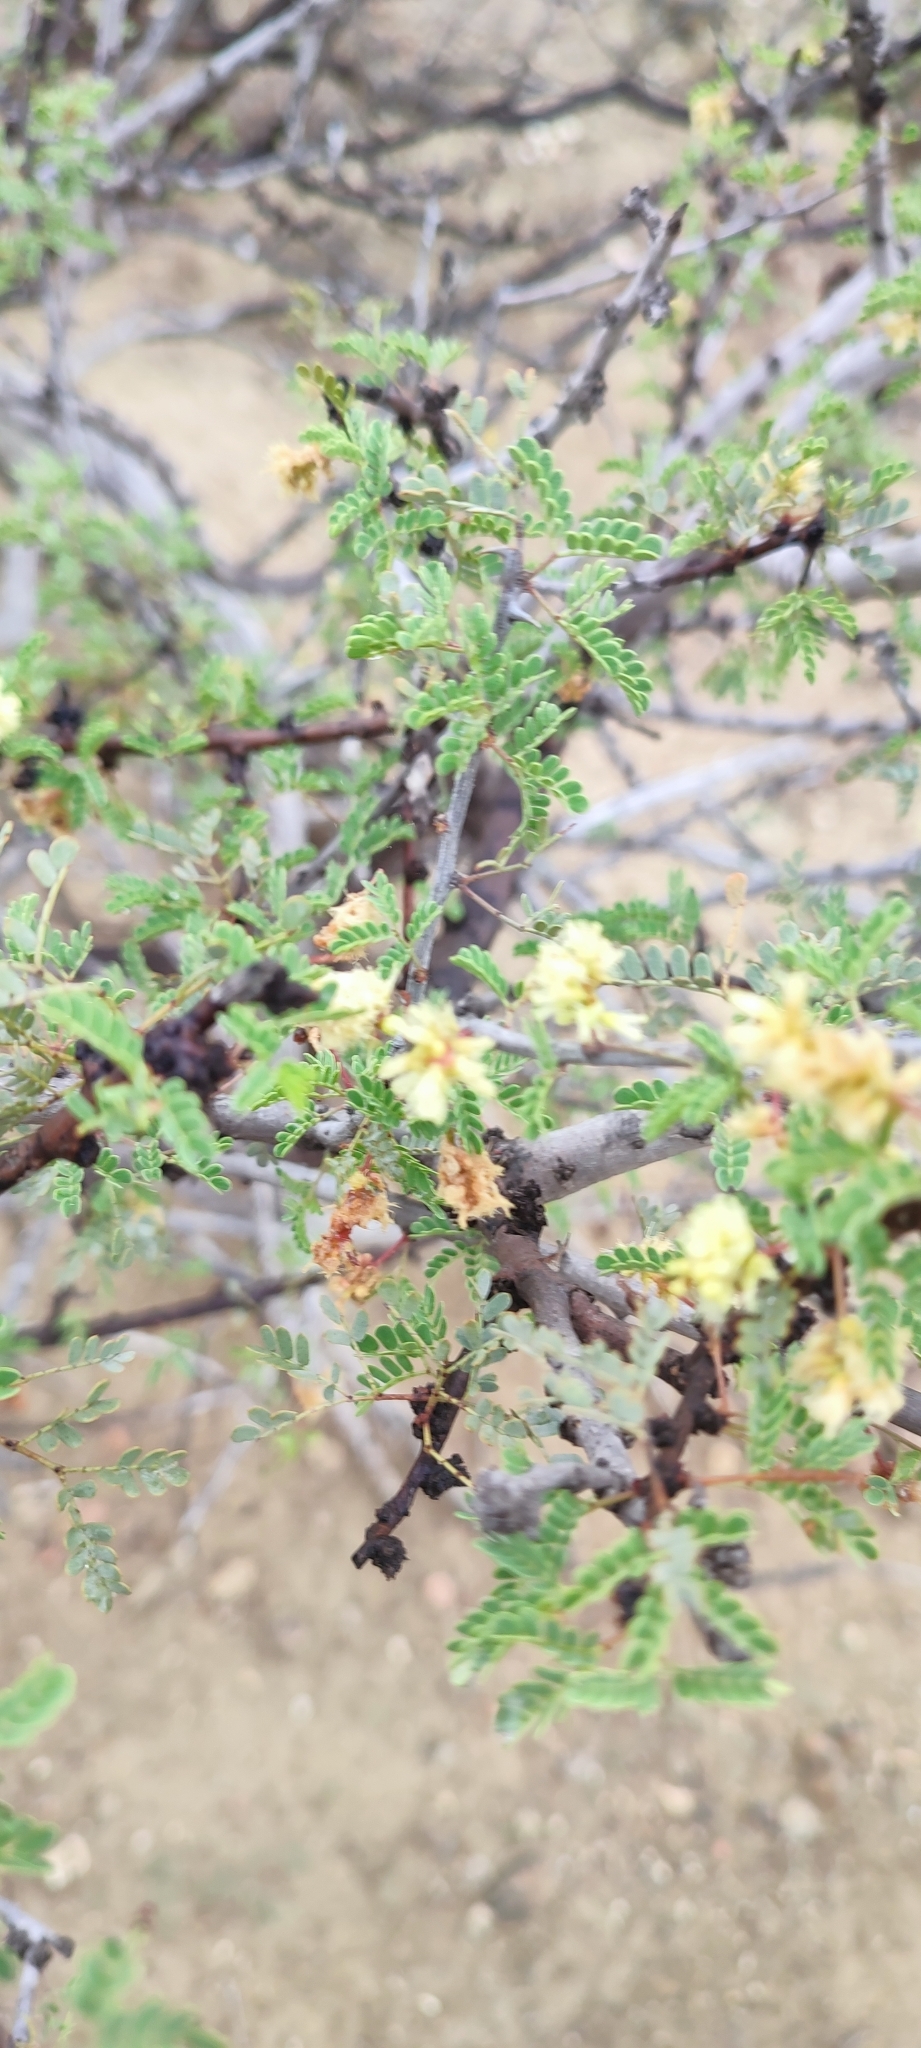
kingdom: Plantae
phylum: Tracheophyta
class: Magnoliopsida
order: Fabales
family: Fabaceae
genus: Senegalia
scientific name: Senegalia greggii
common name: Texas-mimosa
